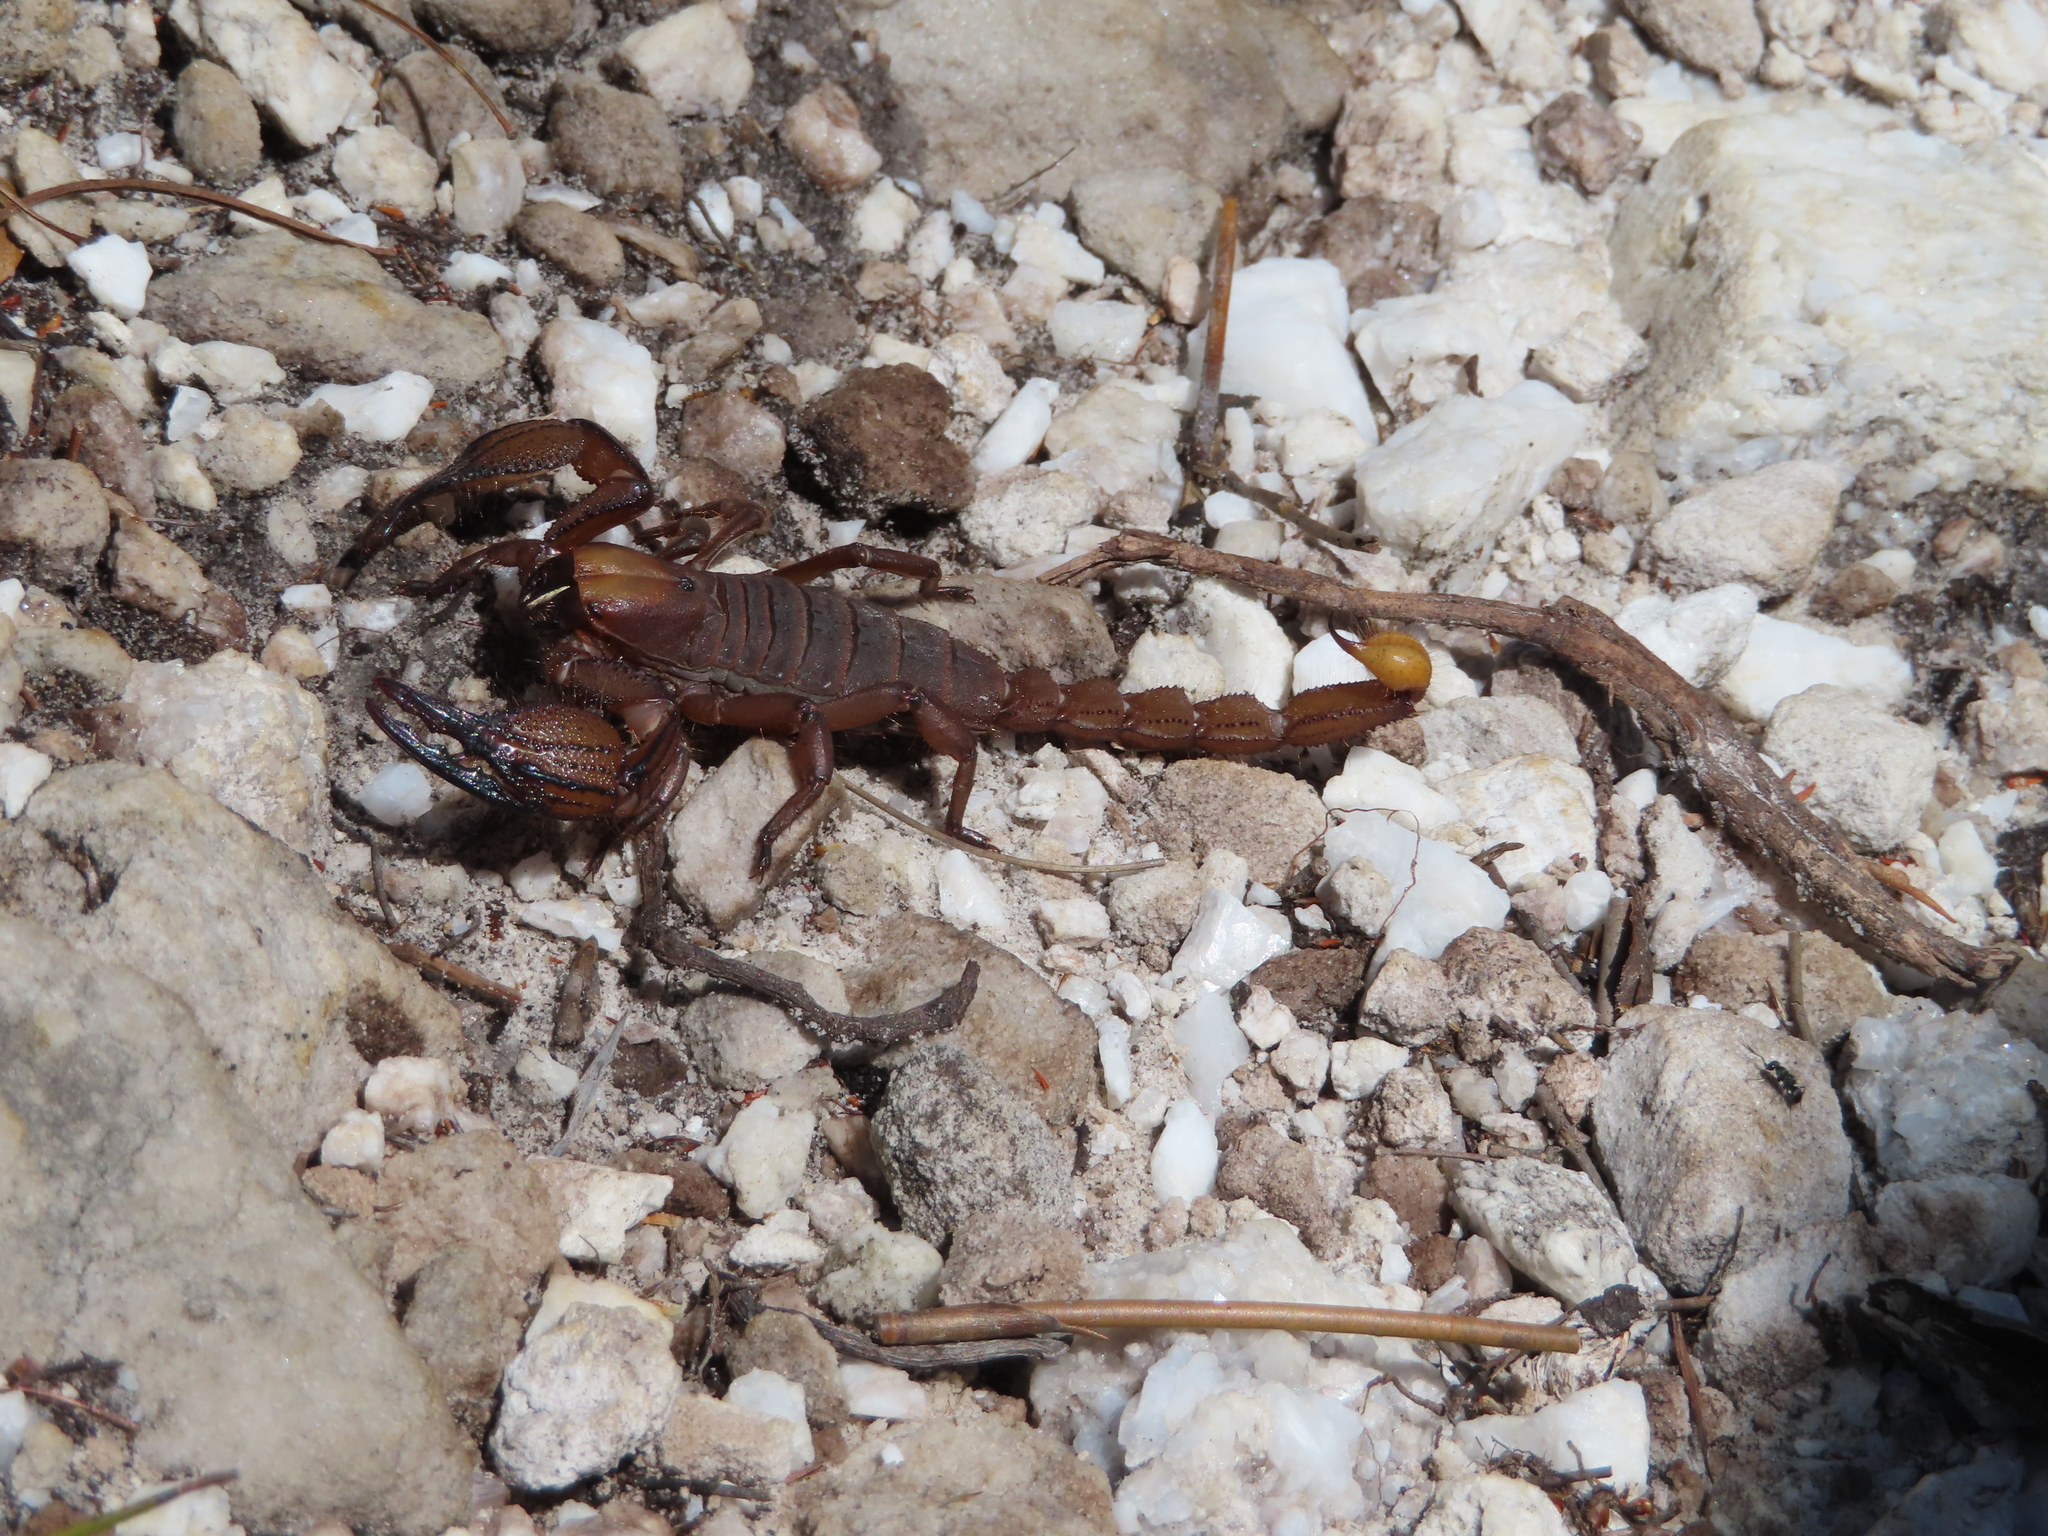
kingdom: Animalia
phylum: Arthropoda
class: Arachnida
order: Scorpiones
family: Scorpionidae
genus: Opistophthalmus
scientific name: Opistophthalmus macer
